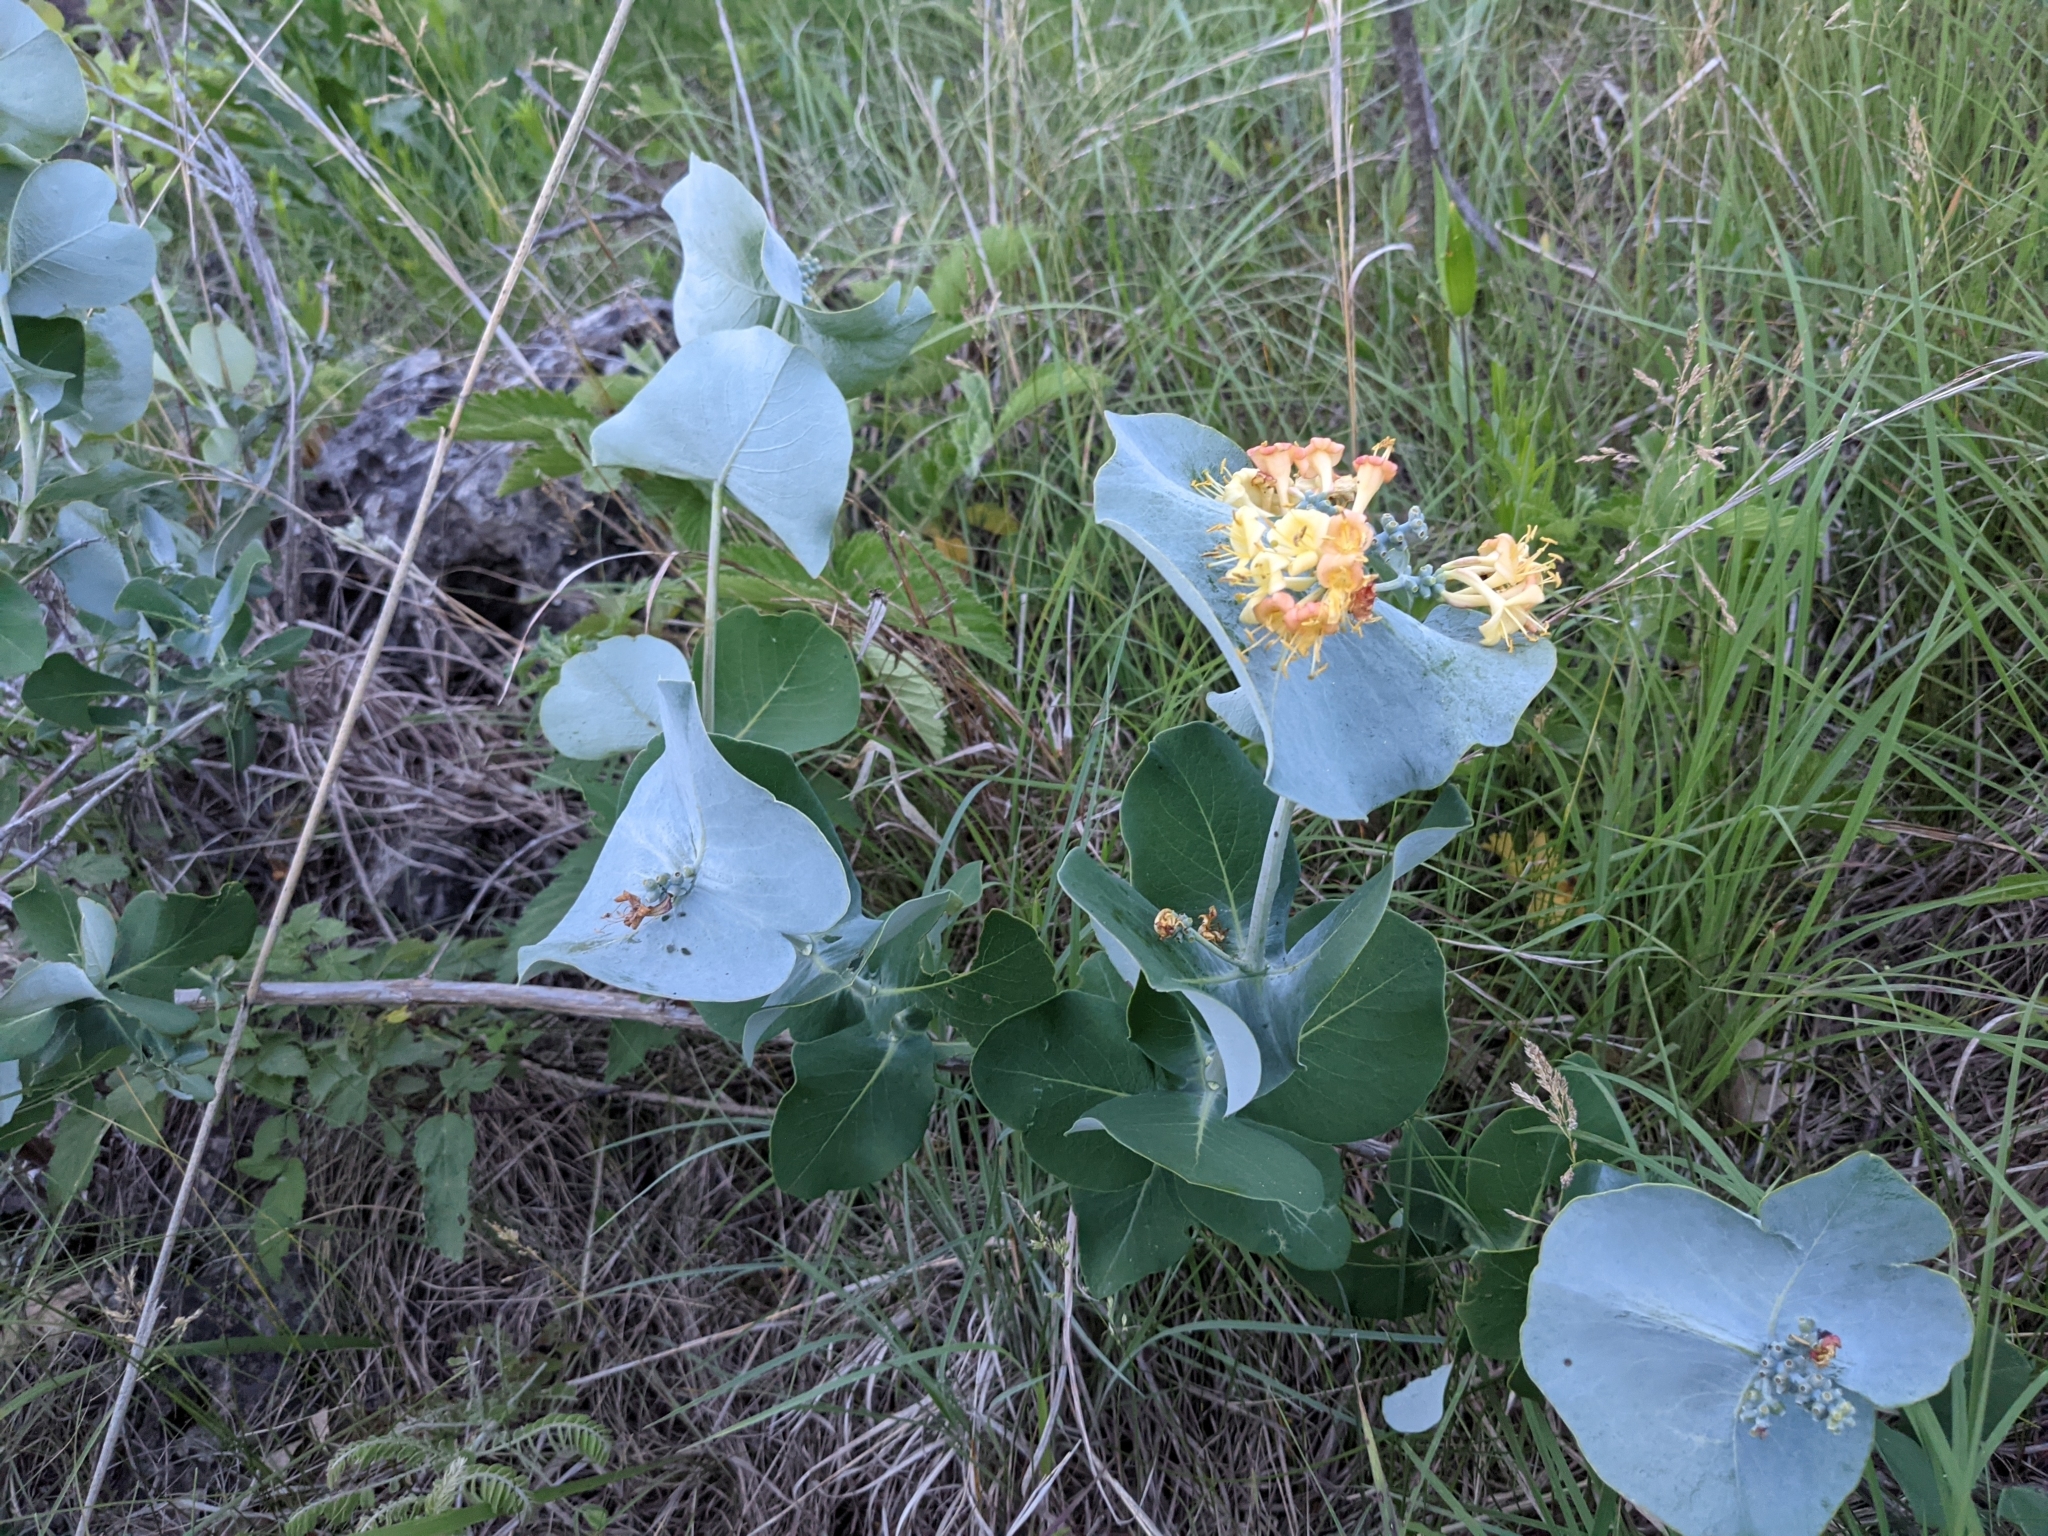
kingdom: Plantae
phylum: Tracheophyta
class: Magnoliopsida
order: Dipsacales
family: Caprifoliaceae
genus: Lonicera
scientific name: Lonicera reticulata
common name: Grape honeysuckle
